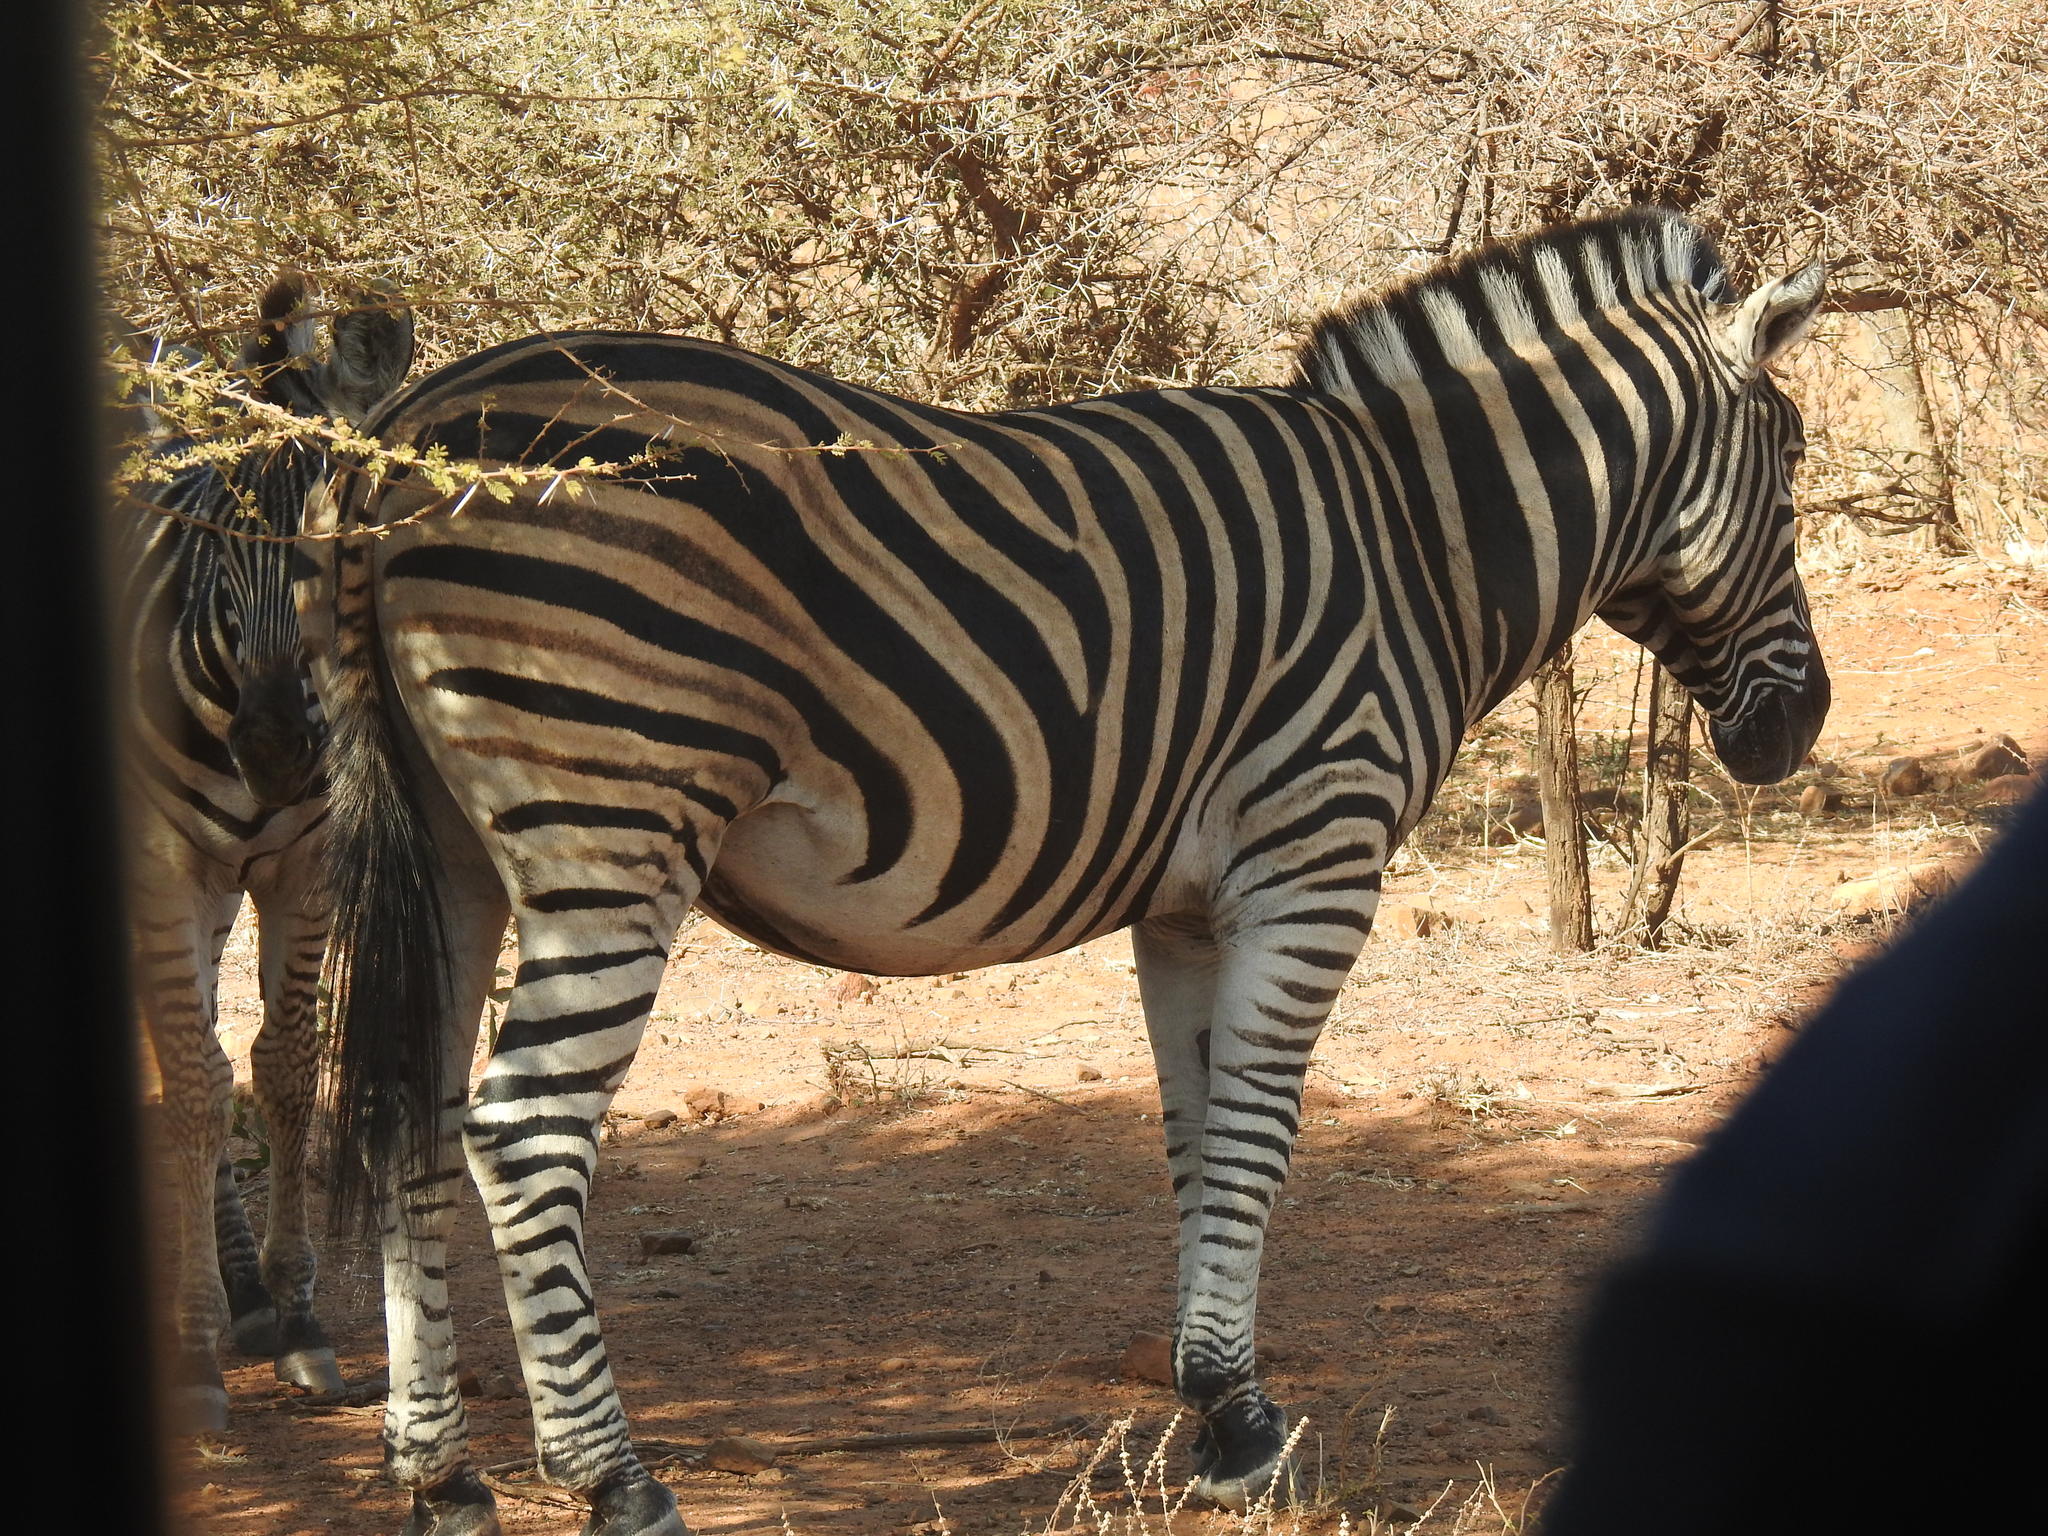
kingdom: Animalia
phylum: Chordata
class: Mammalia
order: Perissodactyla
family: Equidae
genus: Equus
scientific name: Equus quagga
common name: Plains zebra
